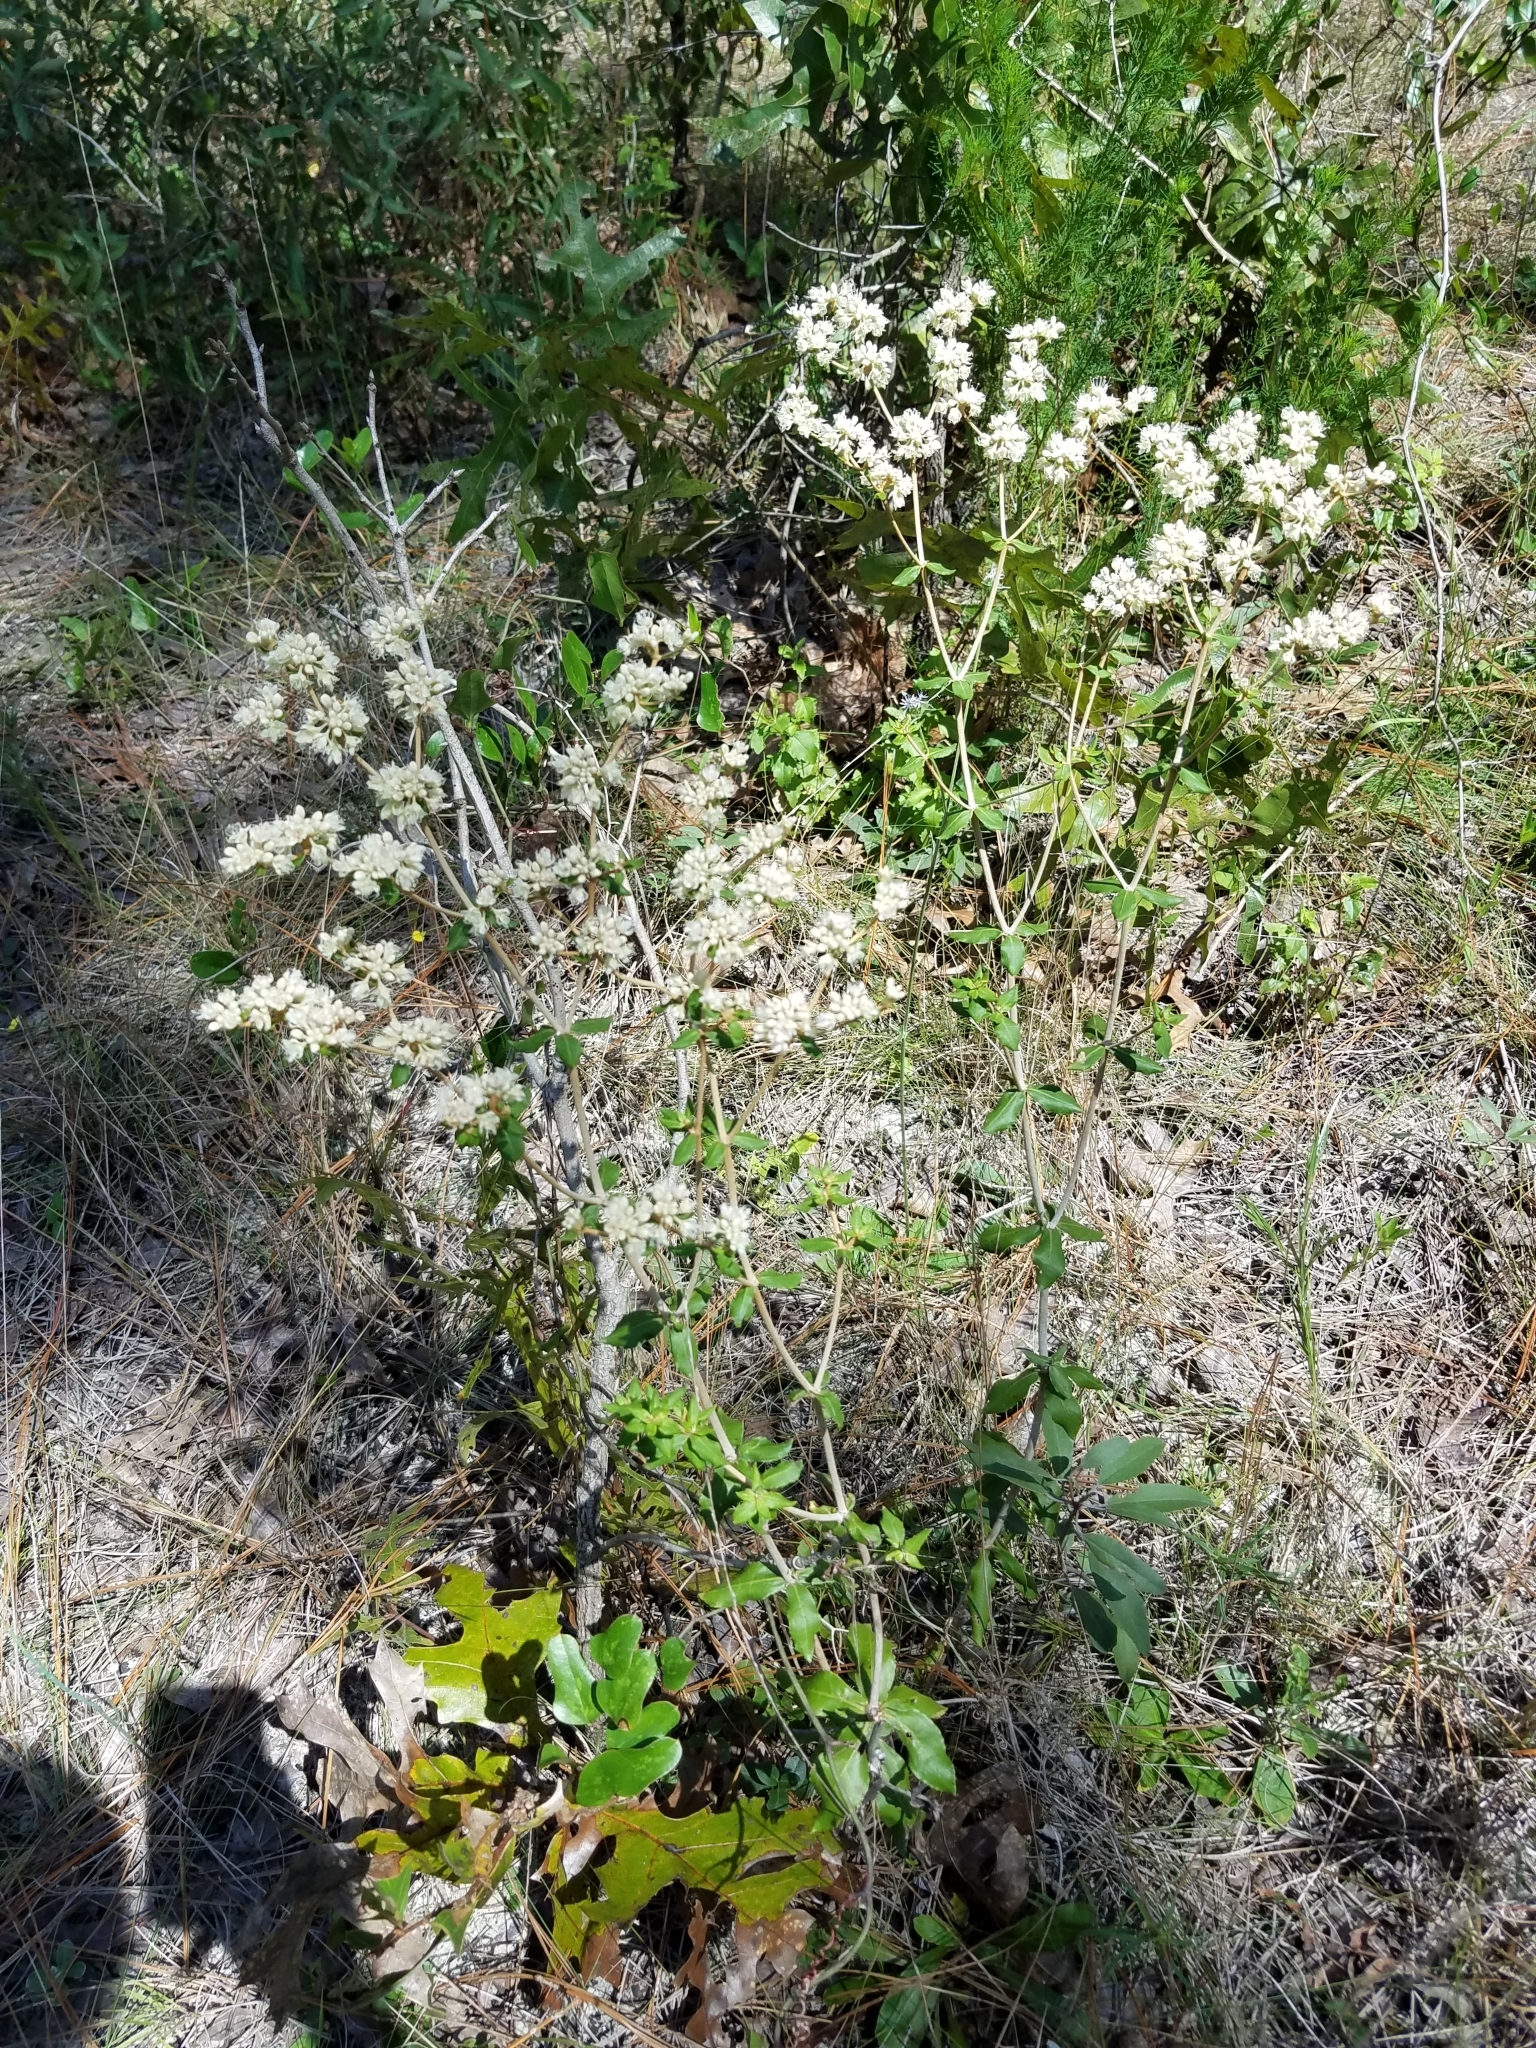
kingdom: Plantae
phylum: Tracheophyta
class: Magnoliopsida
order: Caryophyllales
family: Polygonaceae
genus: Eriogonum
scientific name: Eriogonum tomentosum
